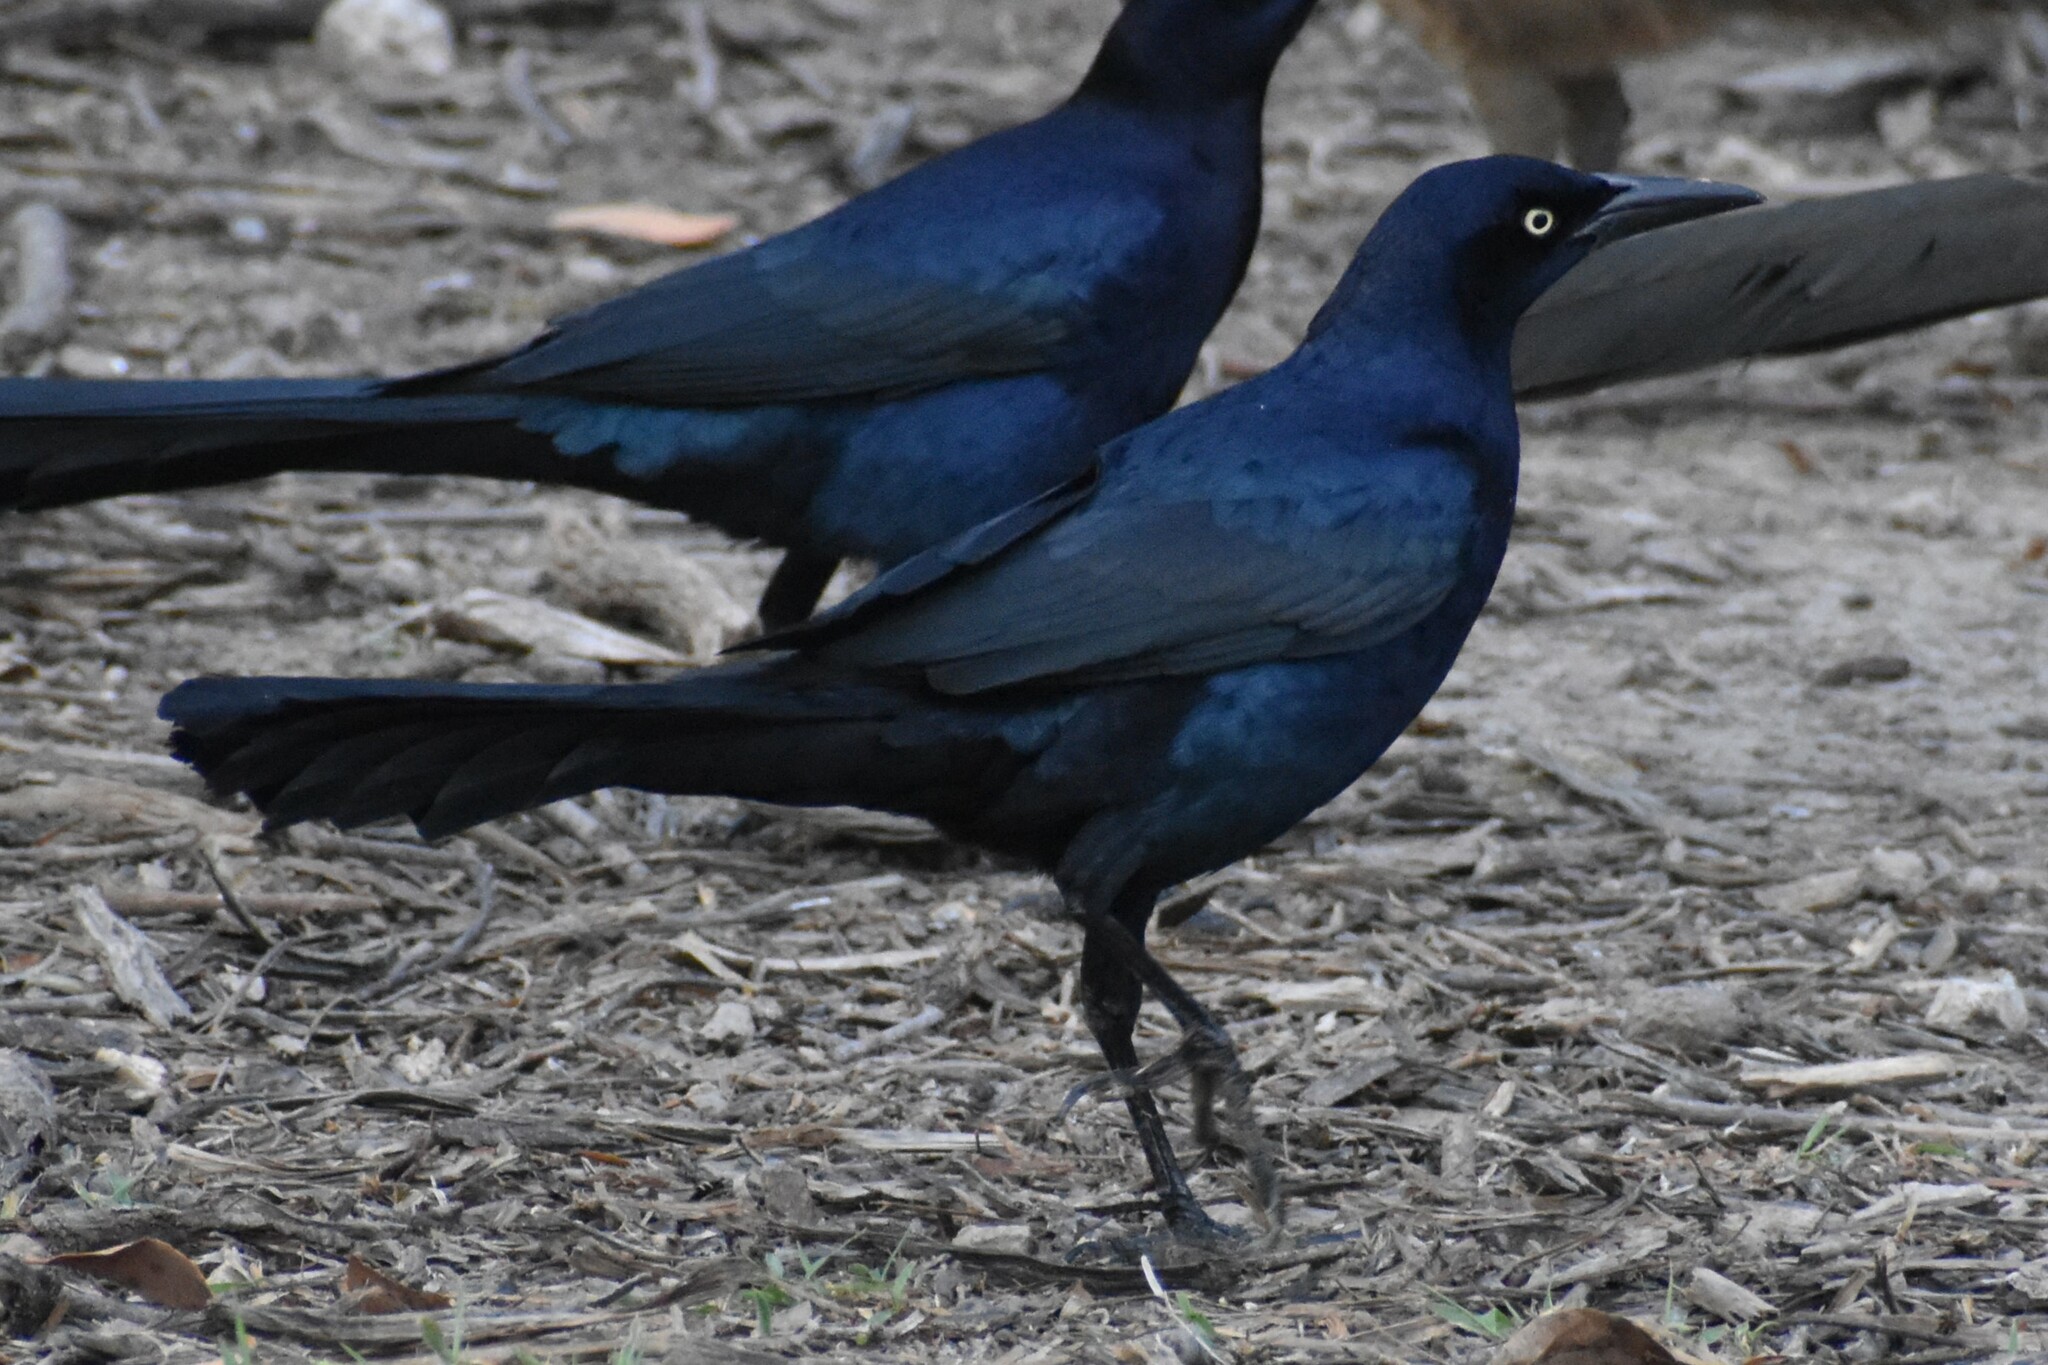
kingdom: Animalia
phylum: Chordata
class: Aves
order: Passeriformes
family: Icteridae
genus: Quiscalus
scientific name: Quiscalus mexicanus
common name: Great-tailed grackle
